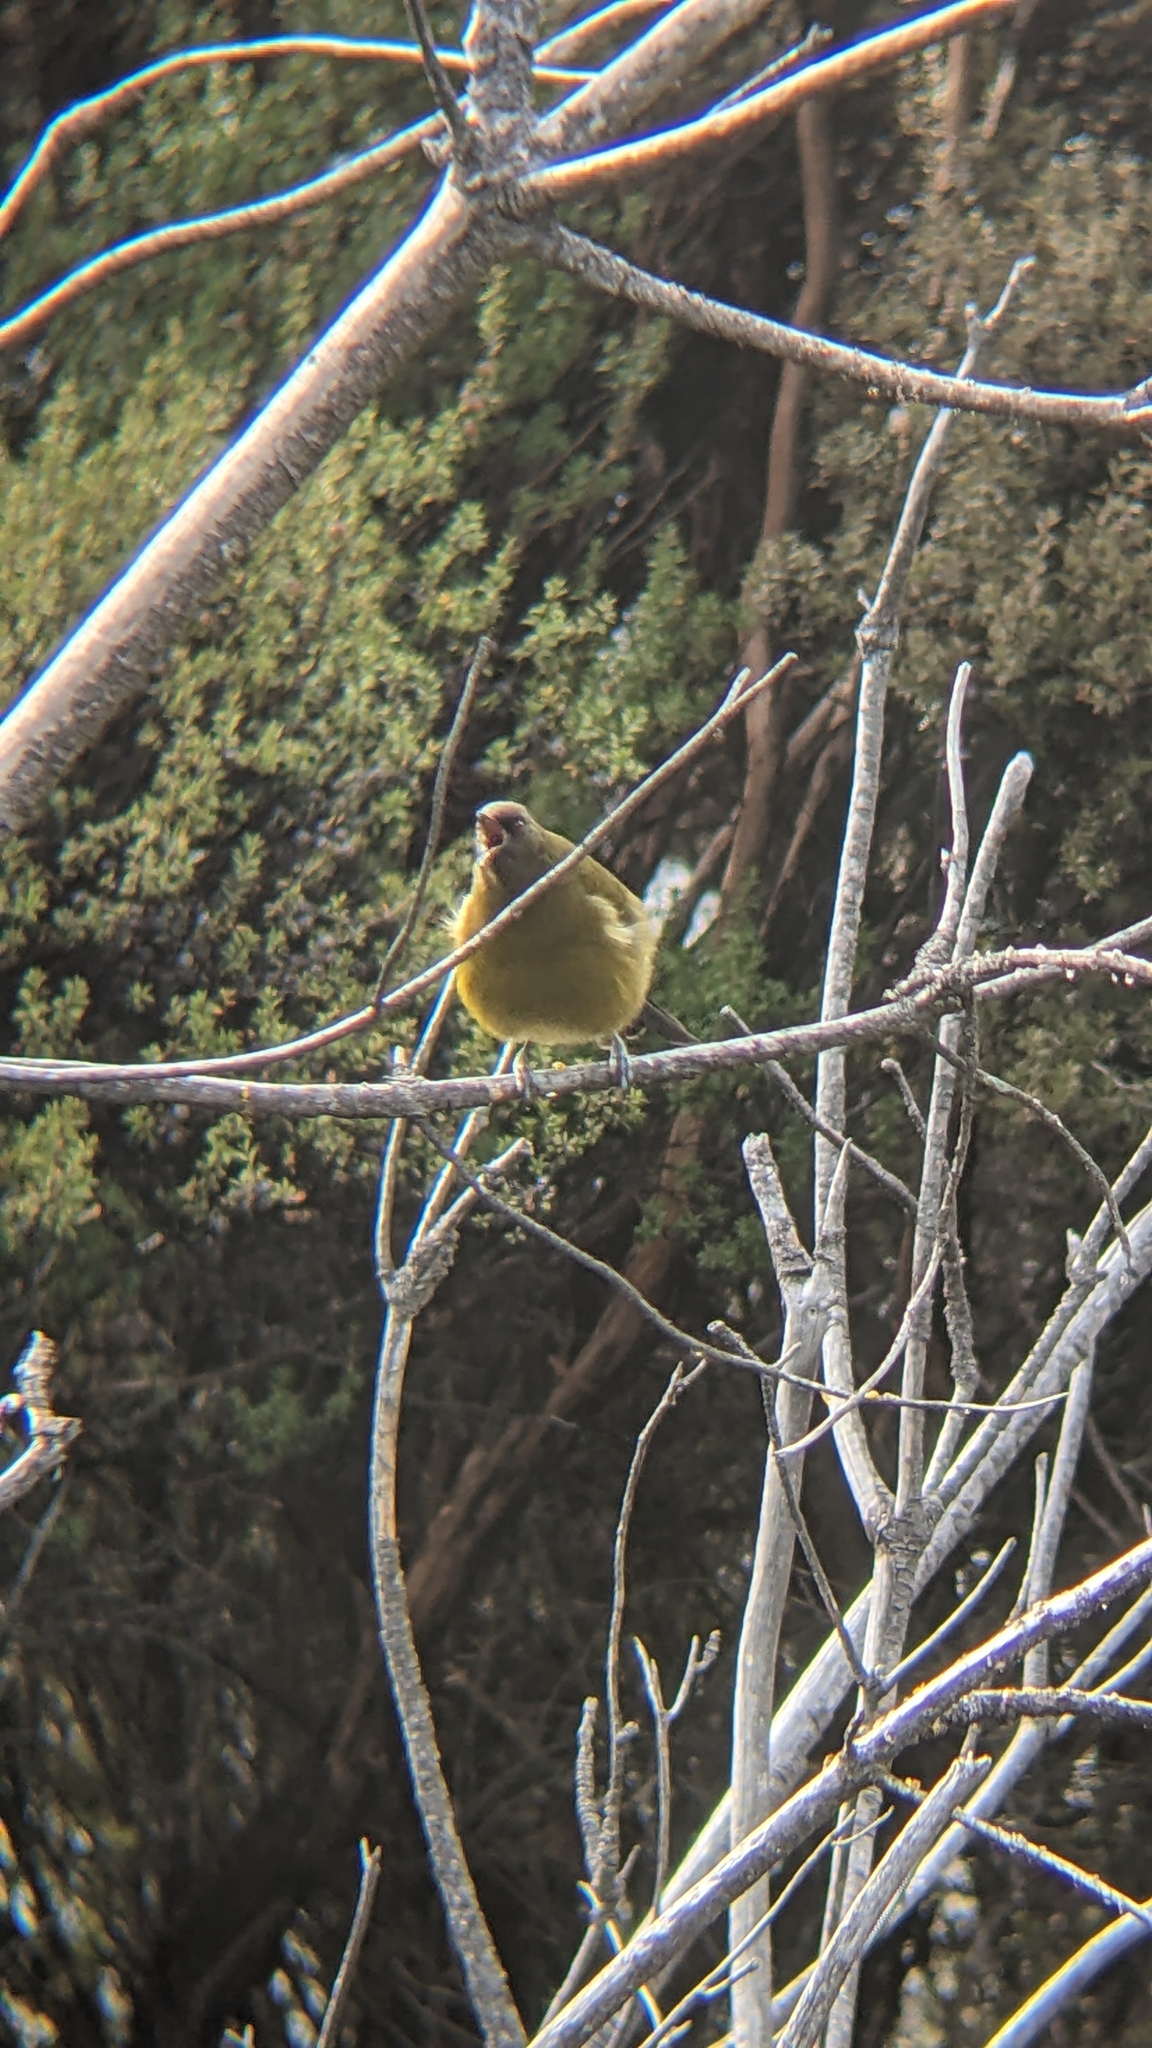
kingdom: Animalia
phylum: Chordata
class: Aves
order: Passeriformes
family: Meliphagidae
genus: Anthornis
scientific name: Anthornis melanura
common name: New zealand bellbird
